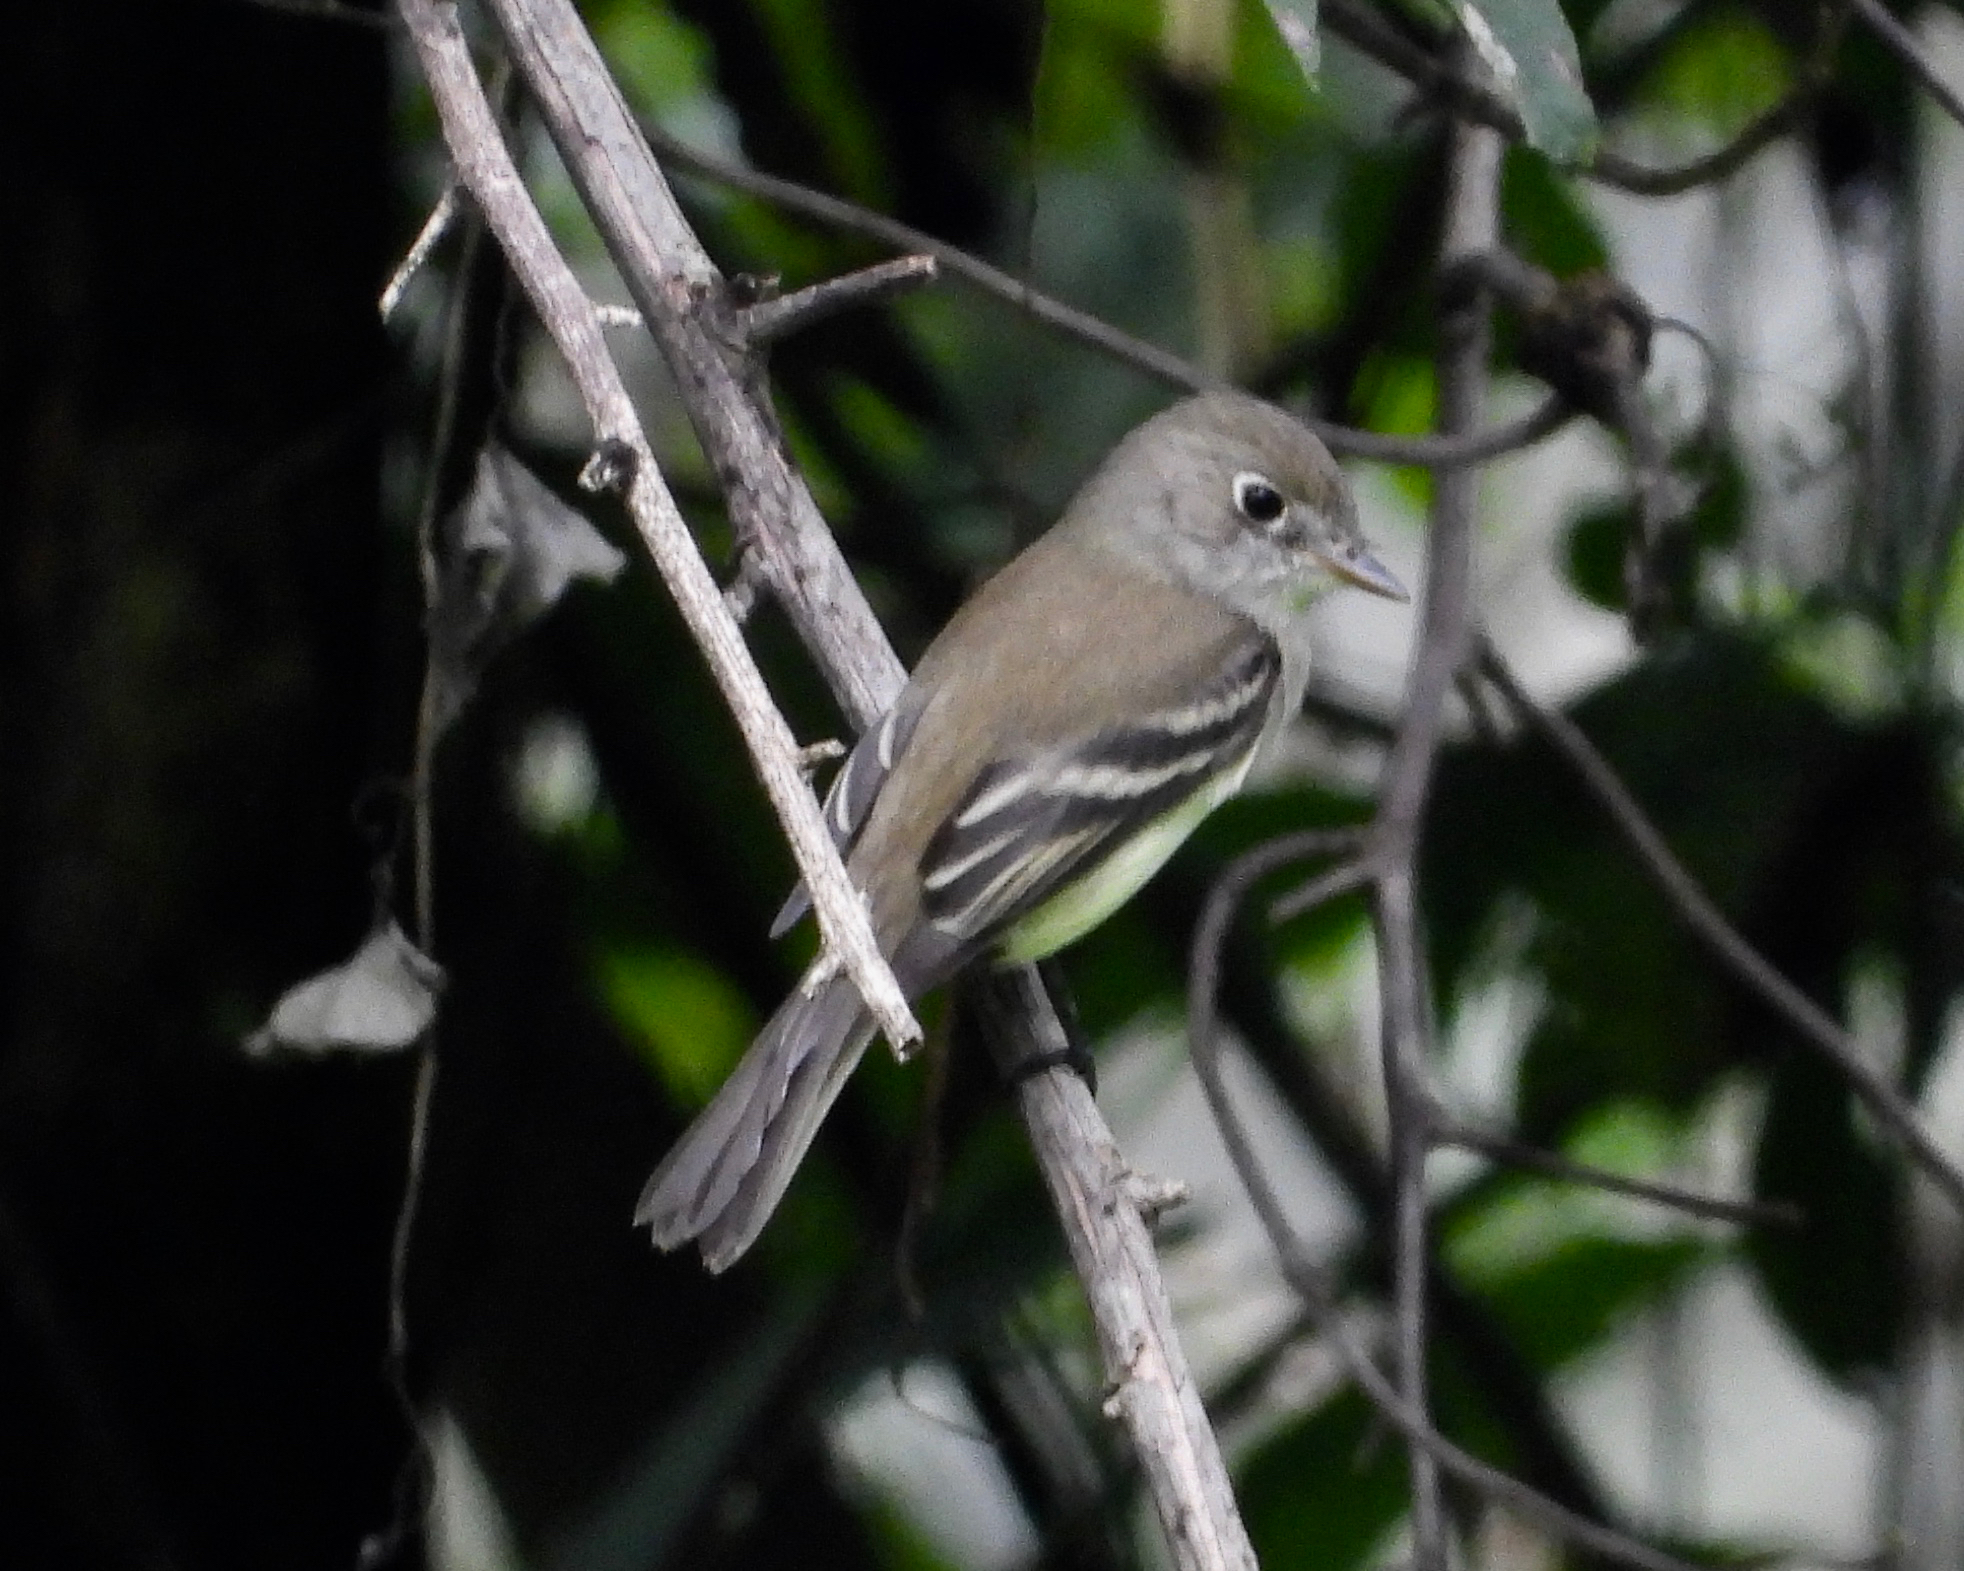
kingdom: Animalia
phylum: Chordata
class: Aves
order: Passeriformes
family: Tyrannidae
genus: Empidonax
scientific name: Empidonax minimus
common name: Least flycatcher
